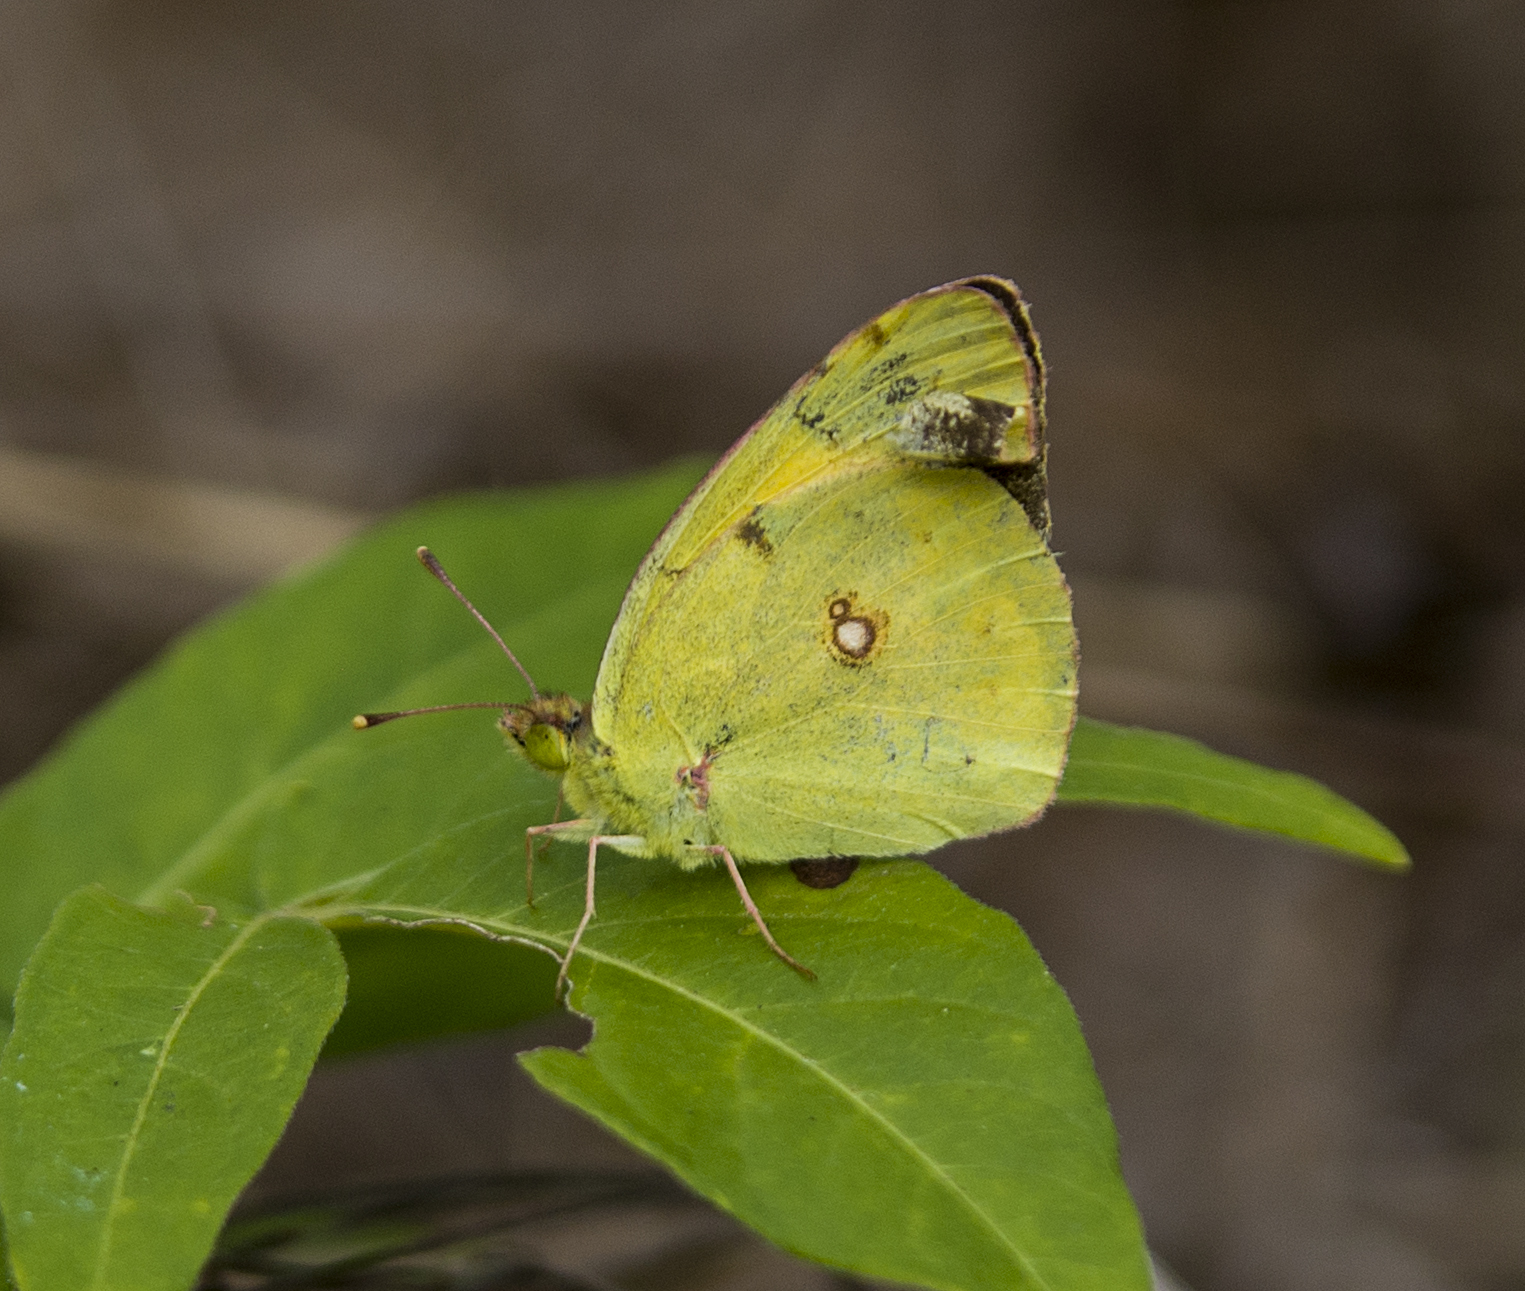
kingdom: Animalia
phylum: Arthropoda
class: Insecta
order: Lepidoptera
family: Pieridae
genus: Colias
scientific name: Colias croceus
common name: Clouded yellow
